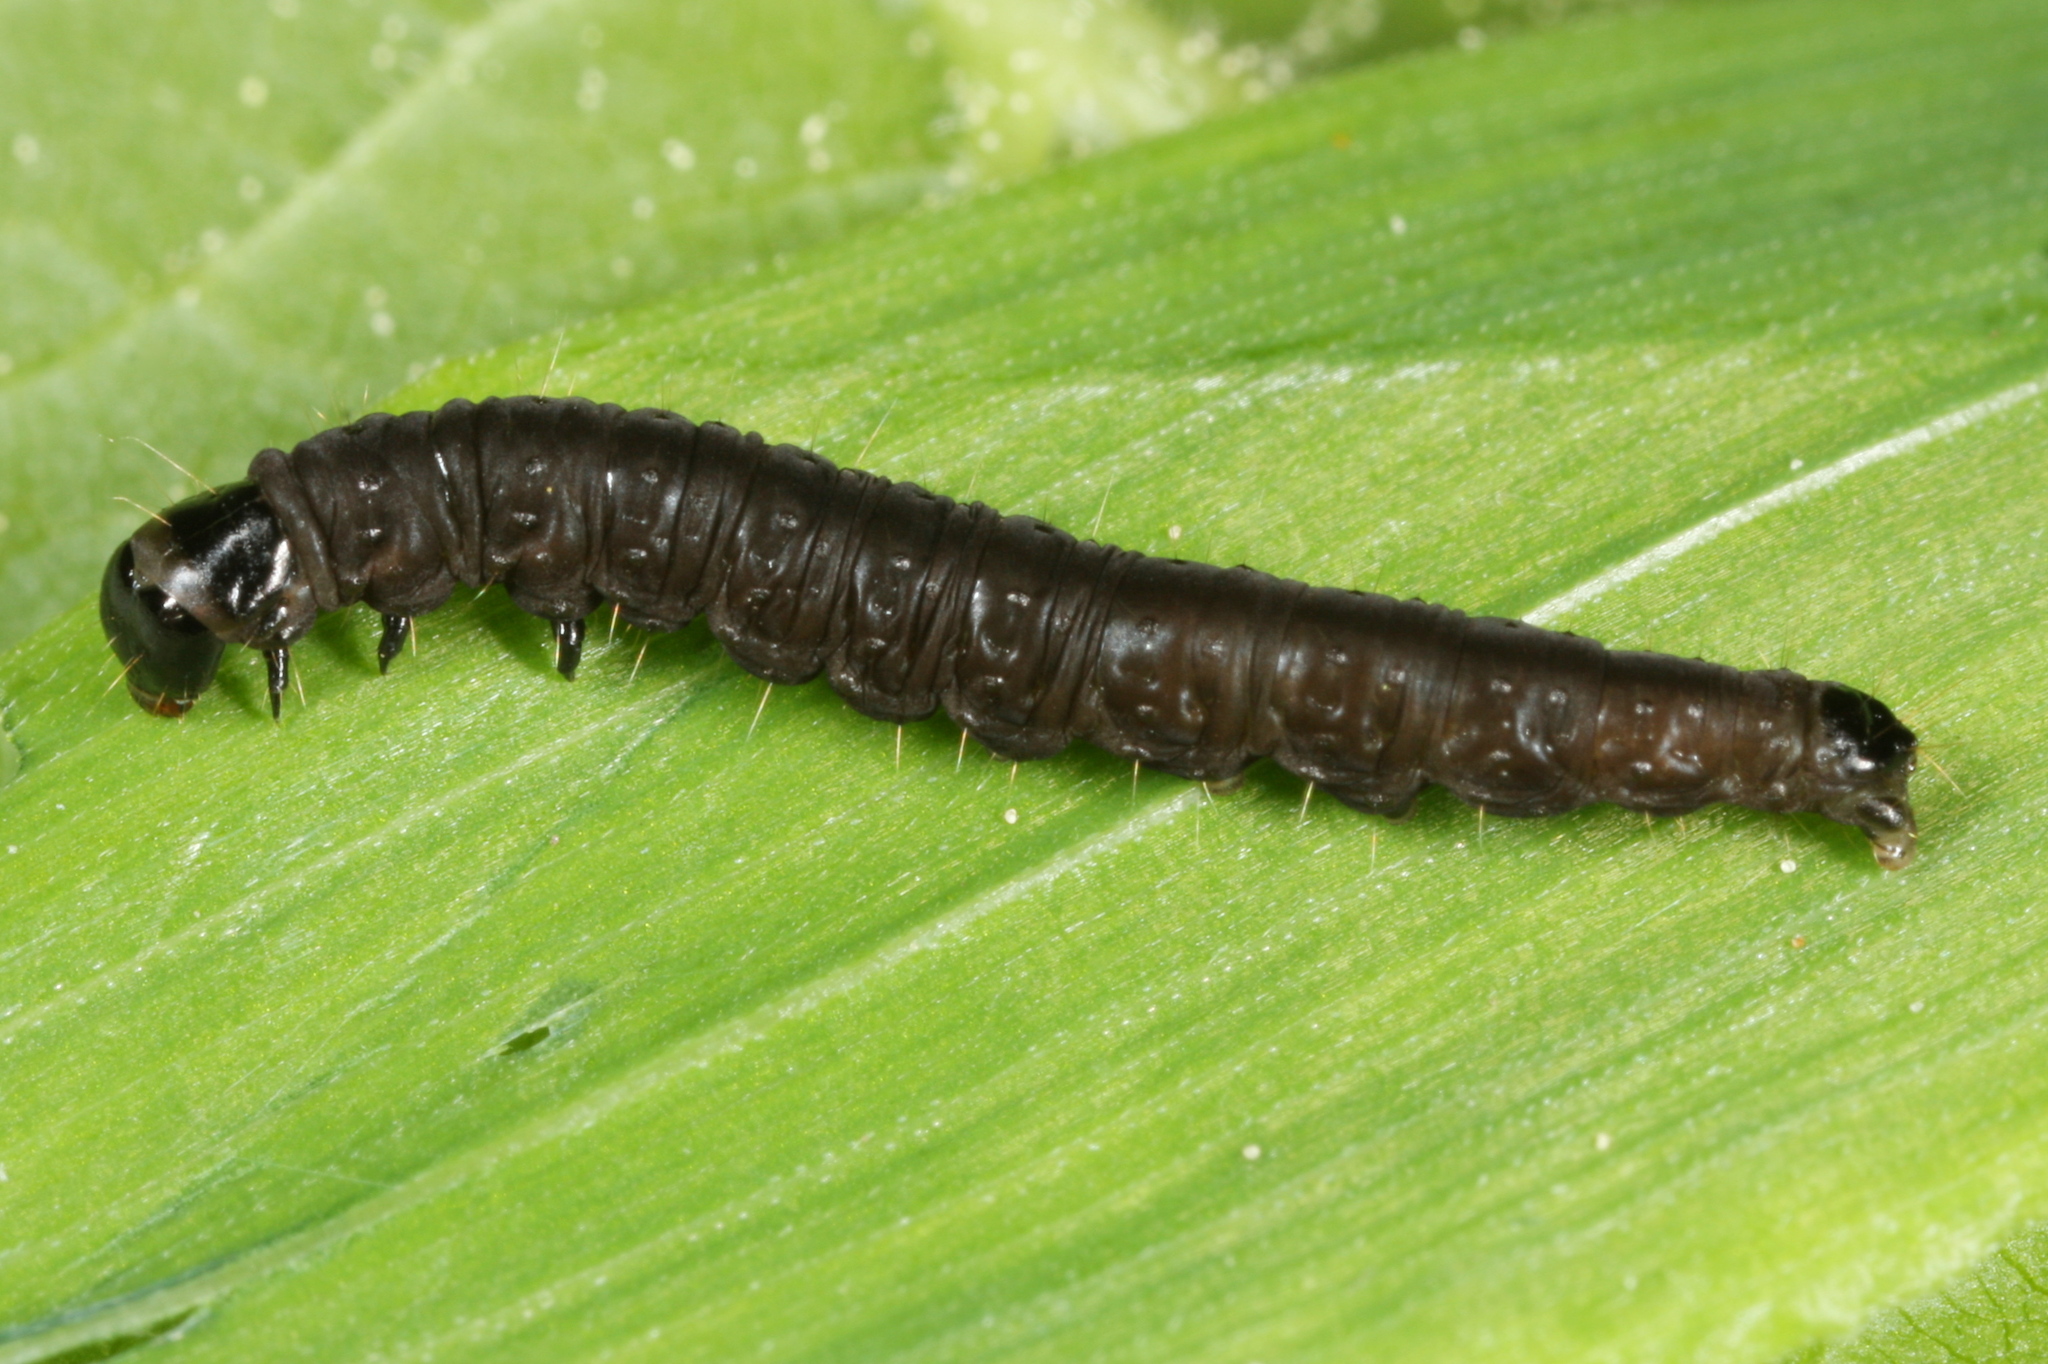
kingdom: Animalia
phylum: Arthropoda
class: Insecta
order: Lepidoptera
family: Tortricidae
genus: Syricoris
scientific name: Syricoris lacunana
